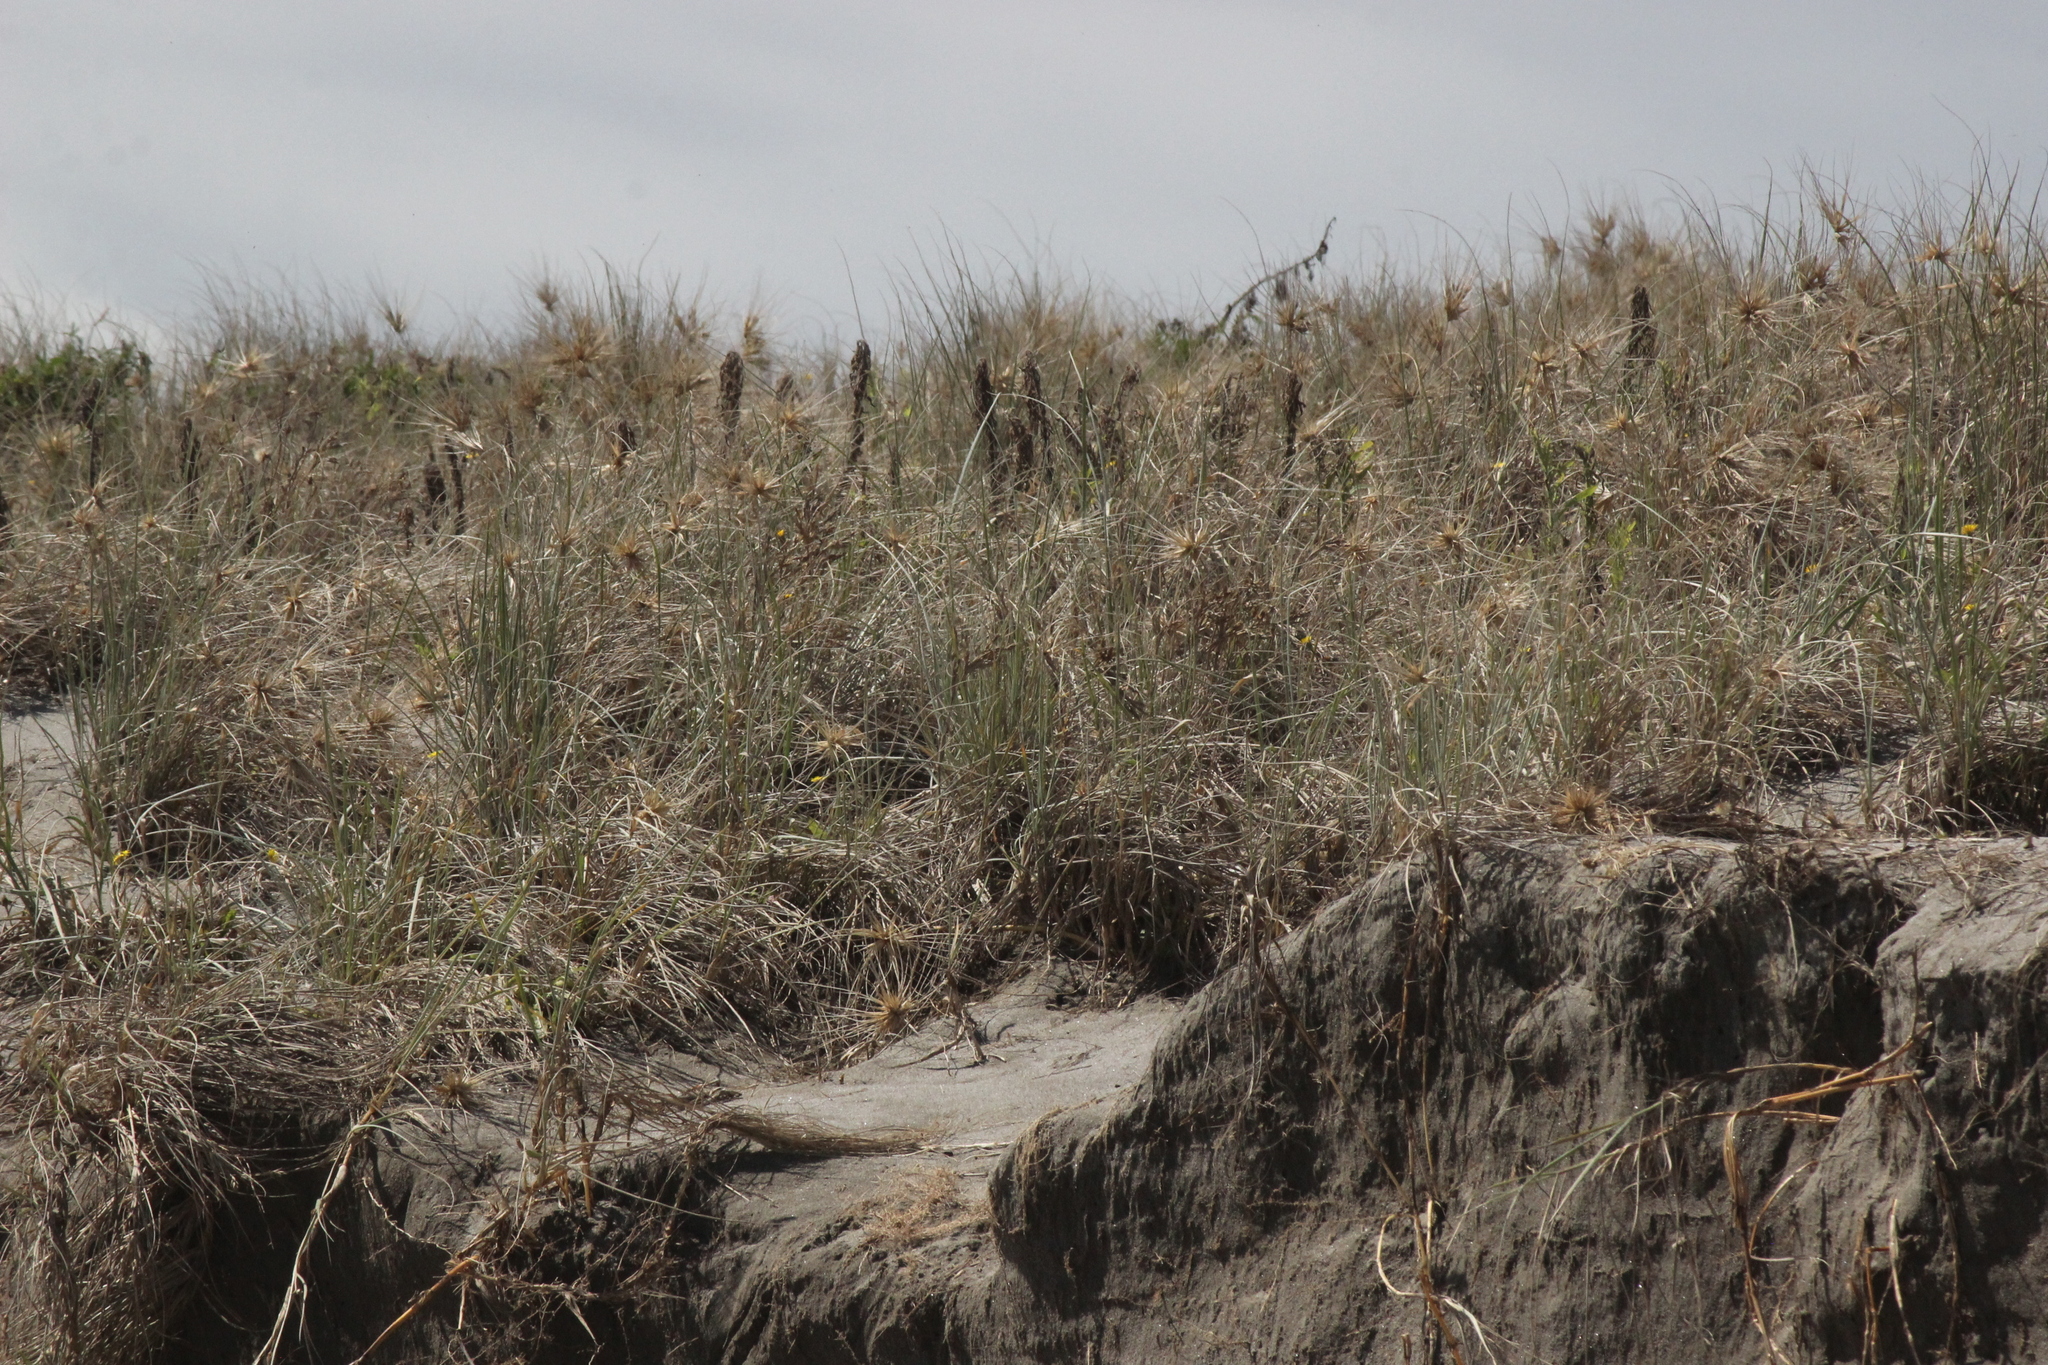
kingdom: Plantae
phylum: Tracheophyta
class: Liliopsida
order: Poales
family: Poaceae
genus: Spinifex
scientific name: Spinifex sericeus
